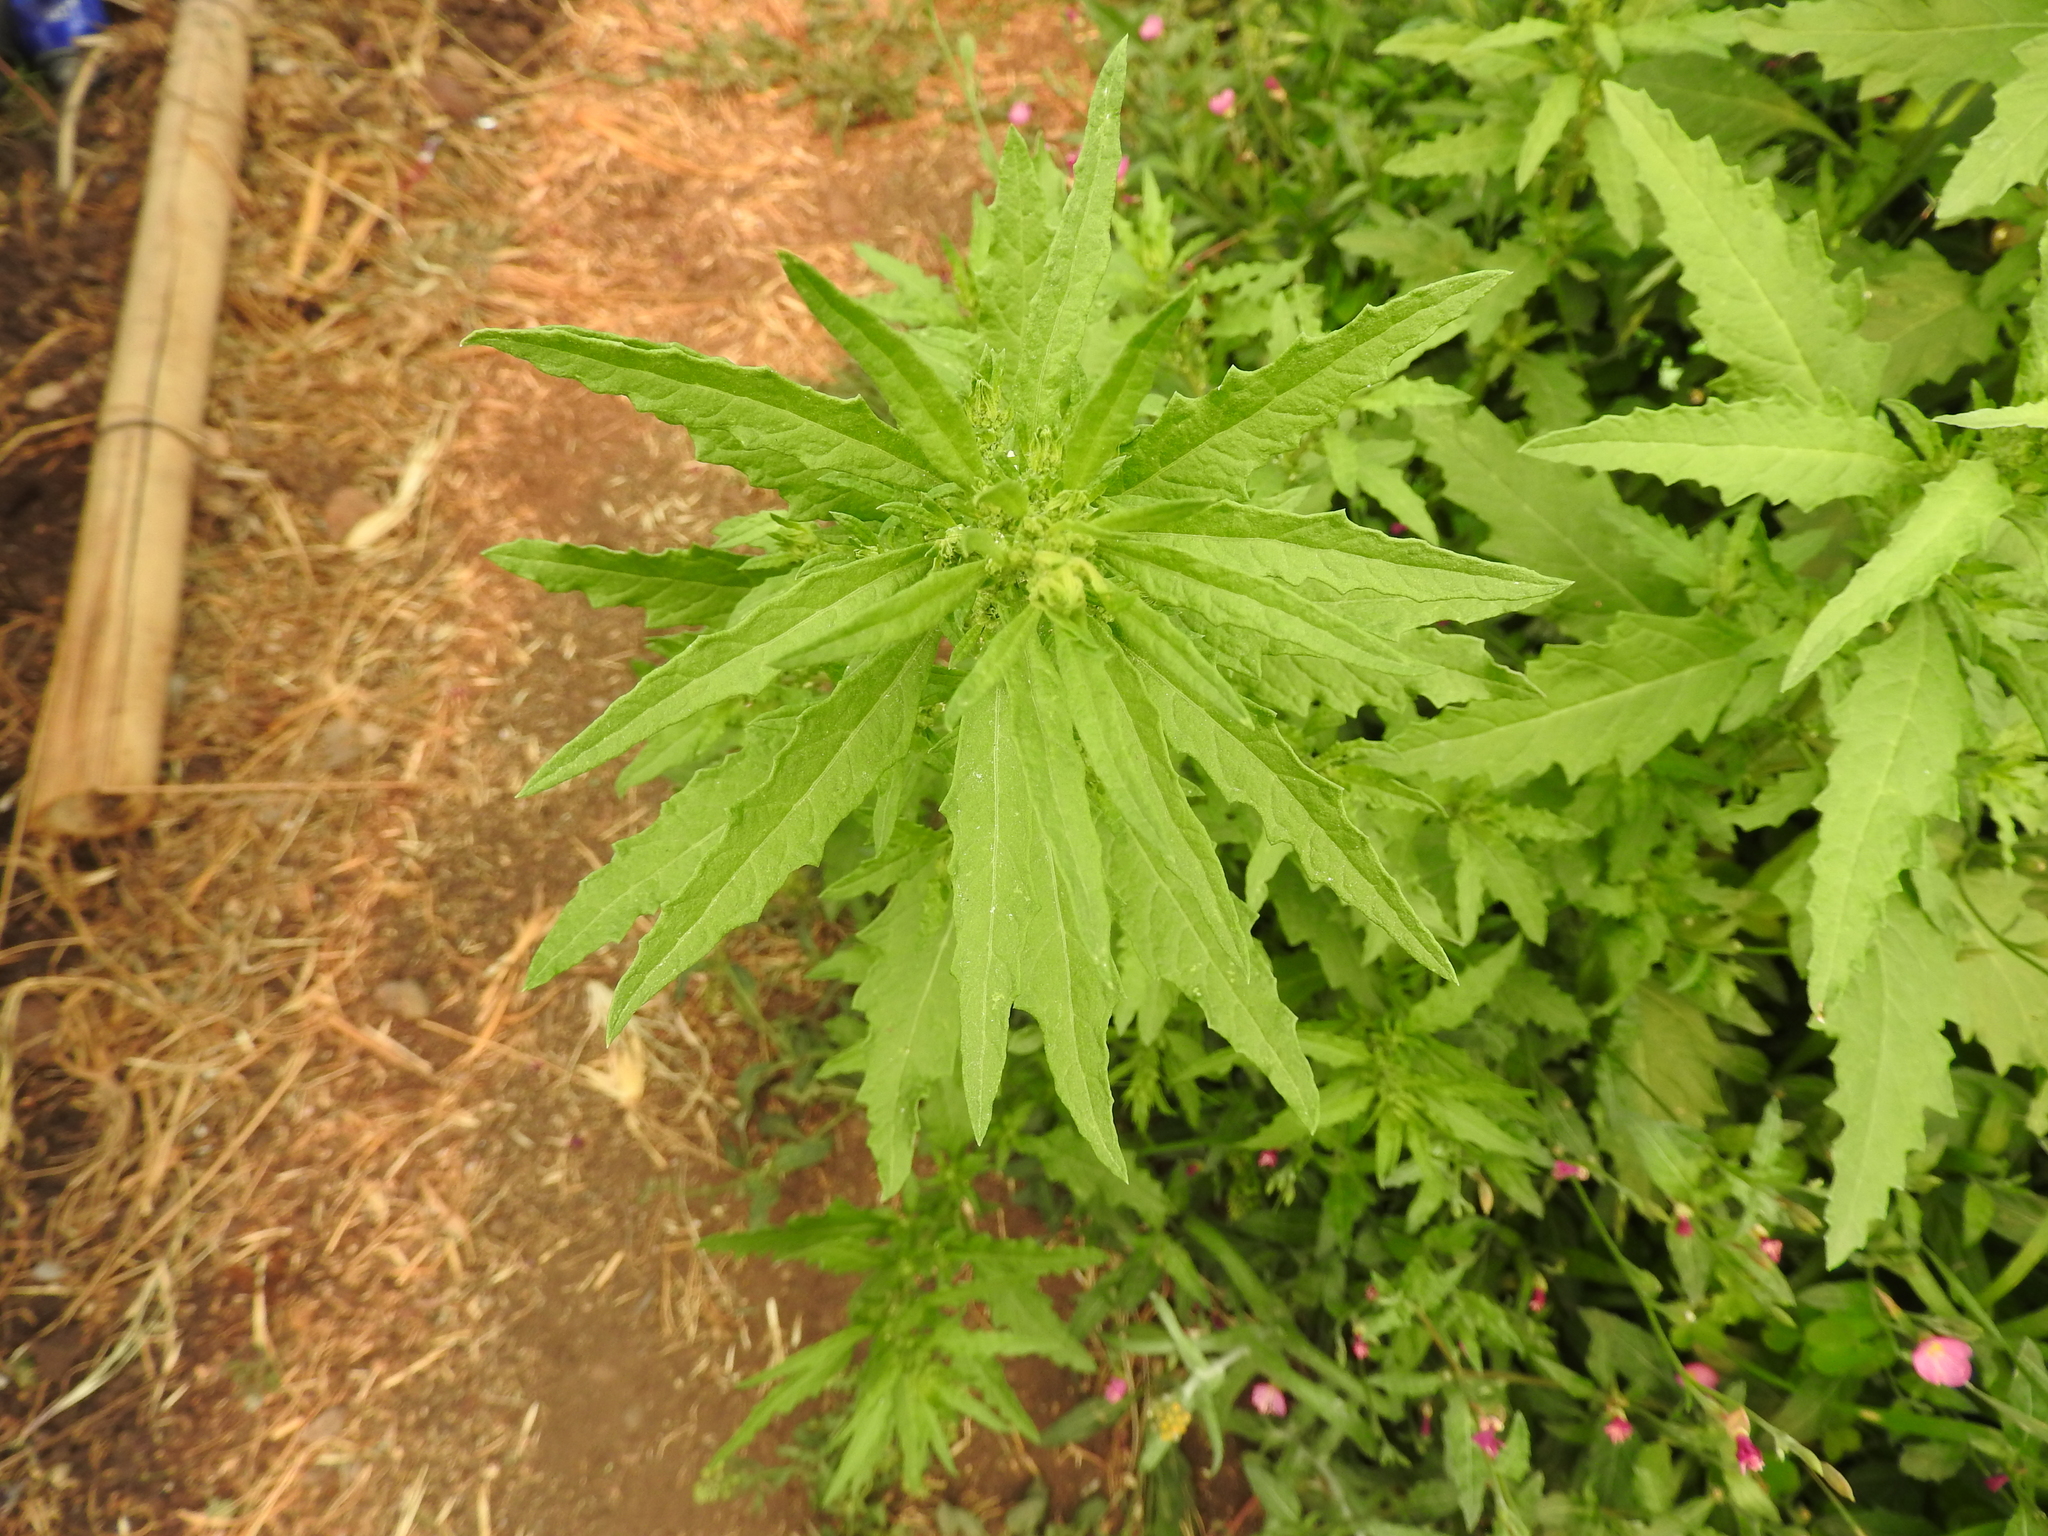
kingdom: Plantae
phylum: Tracheophyta
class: Magnoliopsida
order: Caryophyllales
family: Amaranthaceae
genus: Dysphania
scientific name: Dysphania ambrosioides
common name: Wormseed
